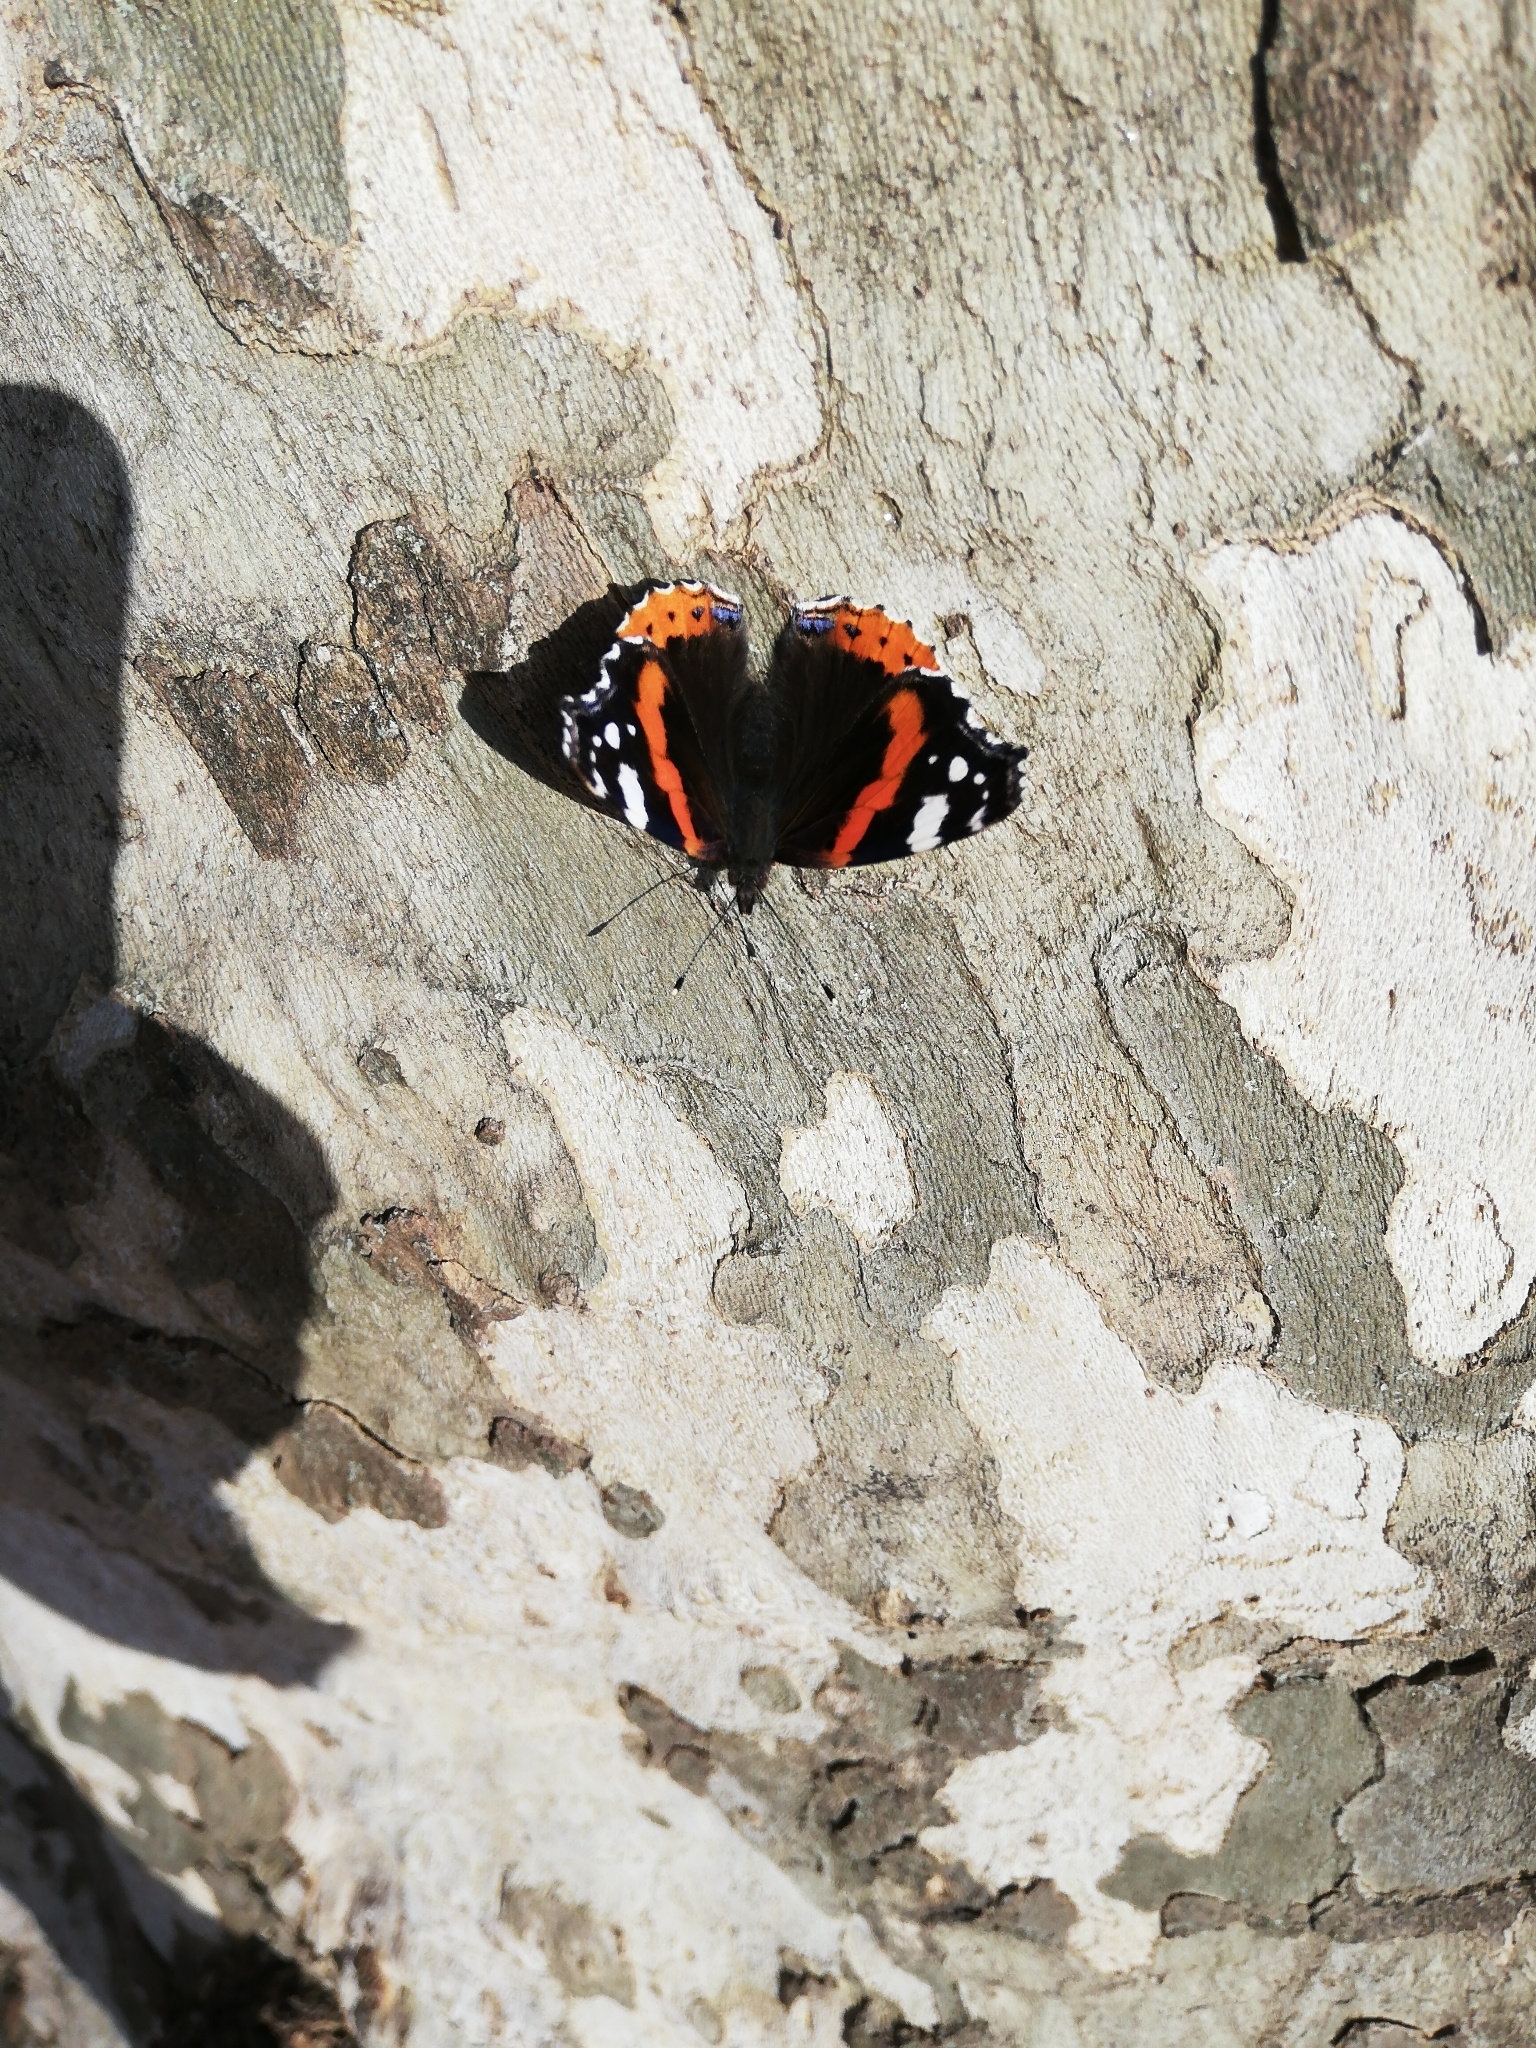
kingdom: Animalia
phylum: Arthropoda
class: Insecta
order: Lepidoptera
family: Nymphalidae
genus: Vanessa
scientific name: Vanessa atalanta
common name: Red admiral
